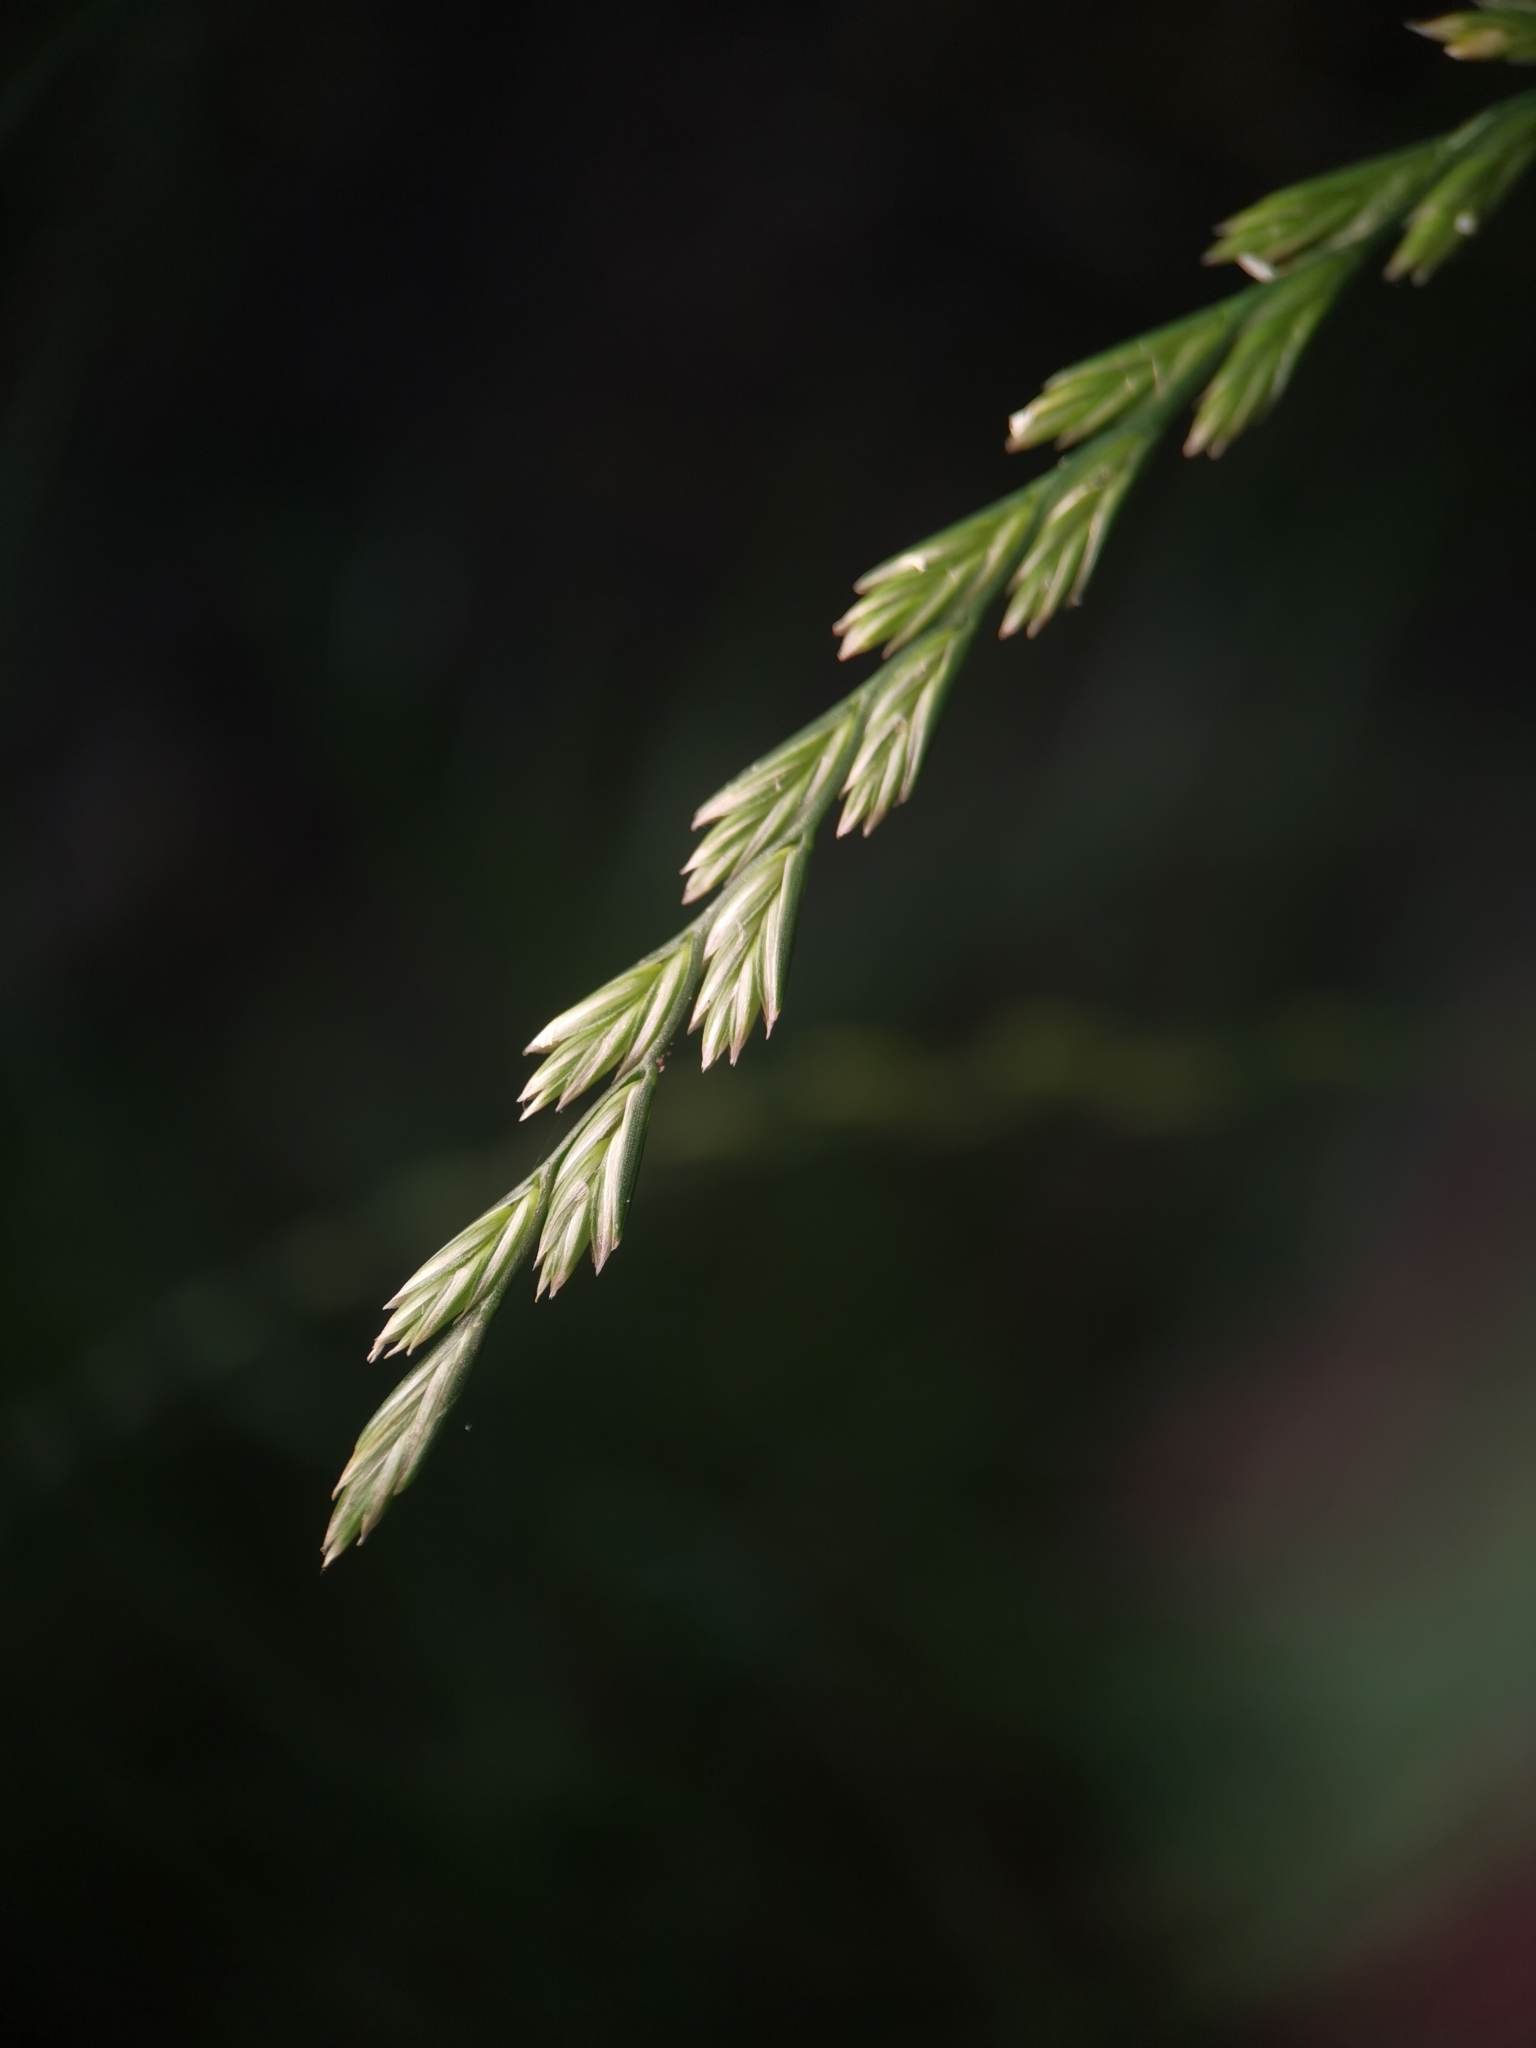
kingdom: Plantae
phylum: Tracheophyta
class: Liliopsida
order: Poales
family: Poaceae
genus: Lolium
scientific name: Lolium perenne
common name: Perennial ryegrass
